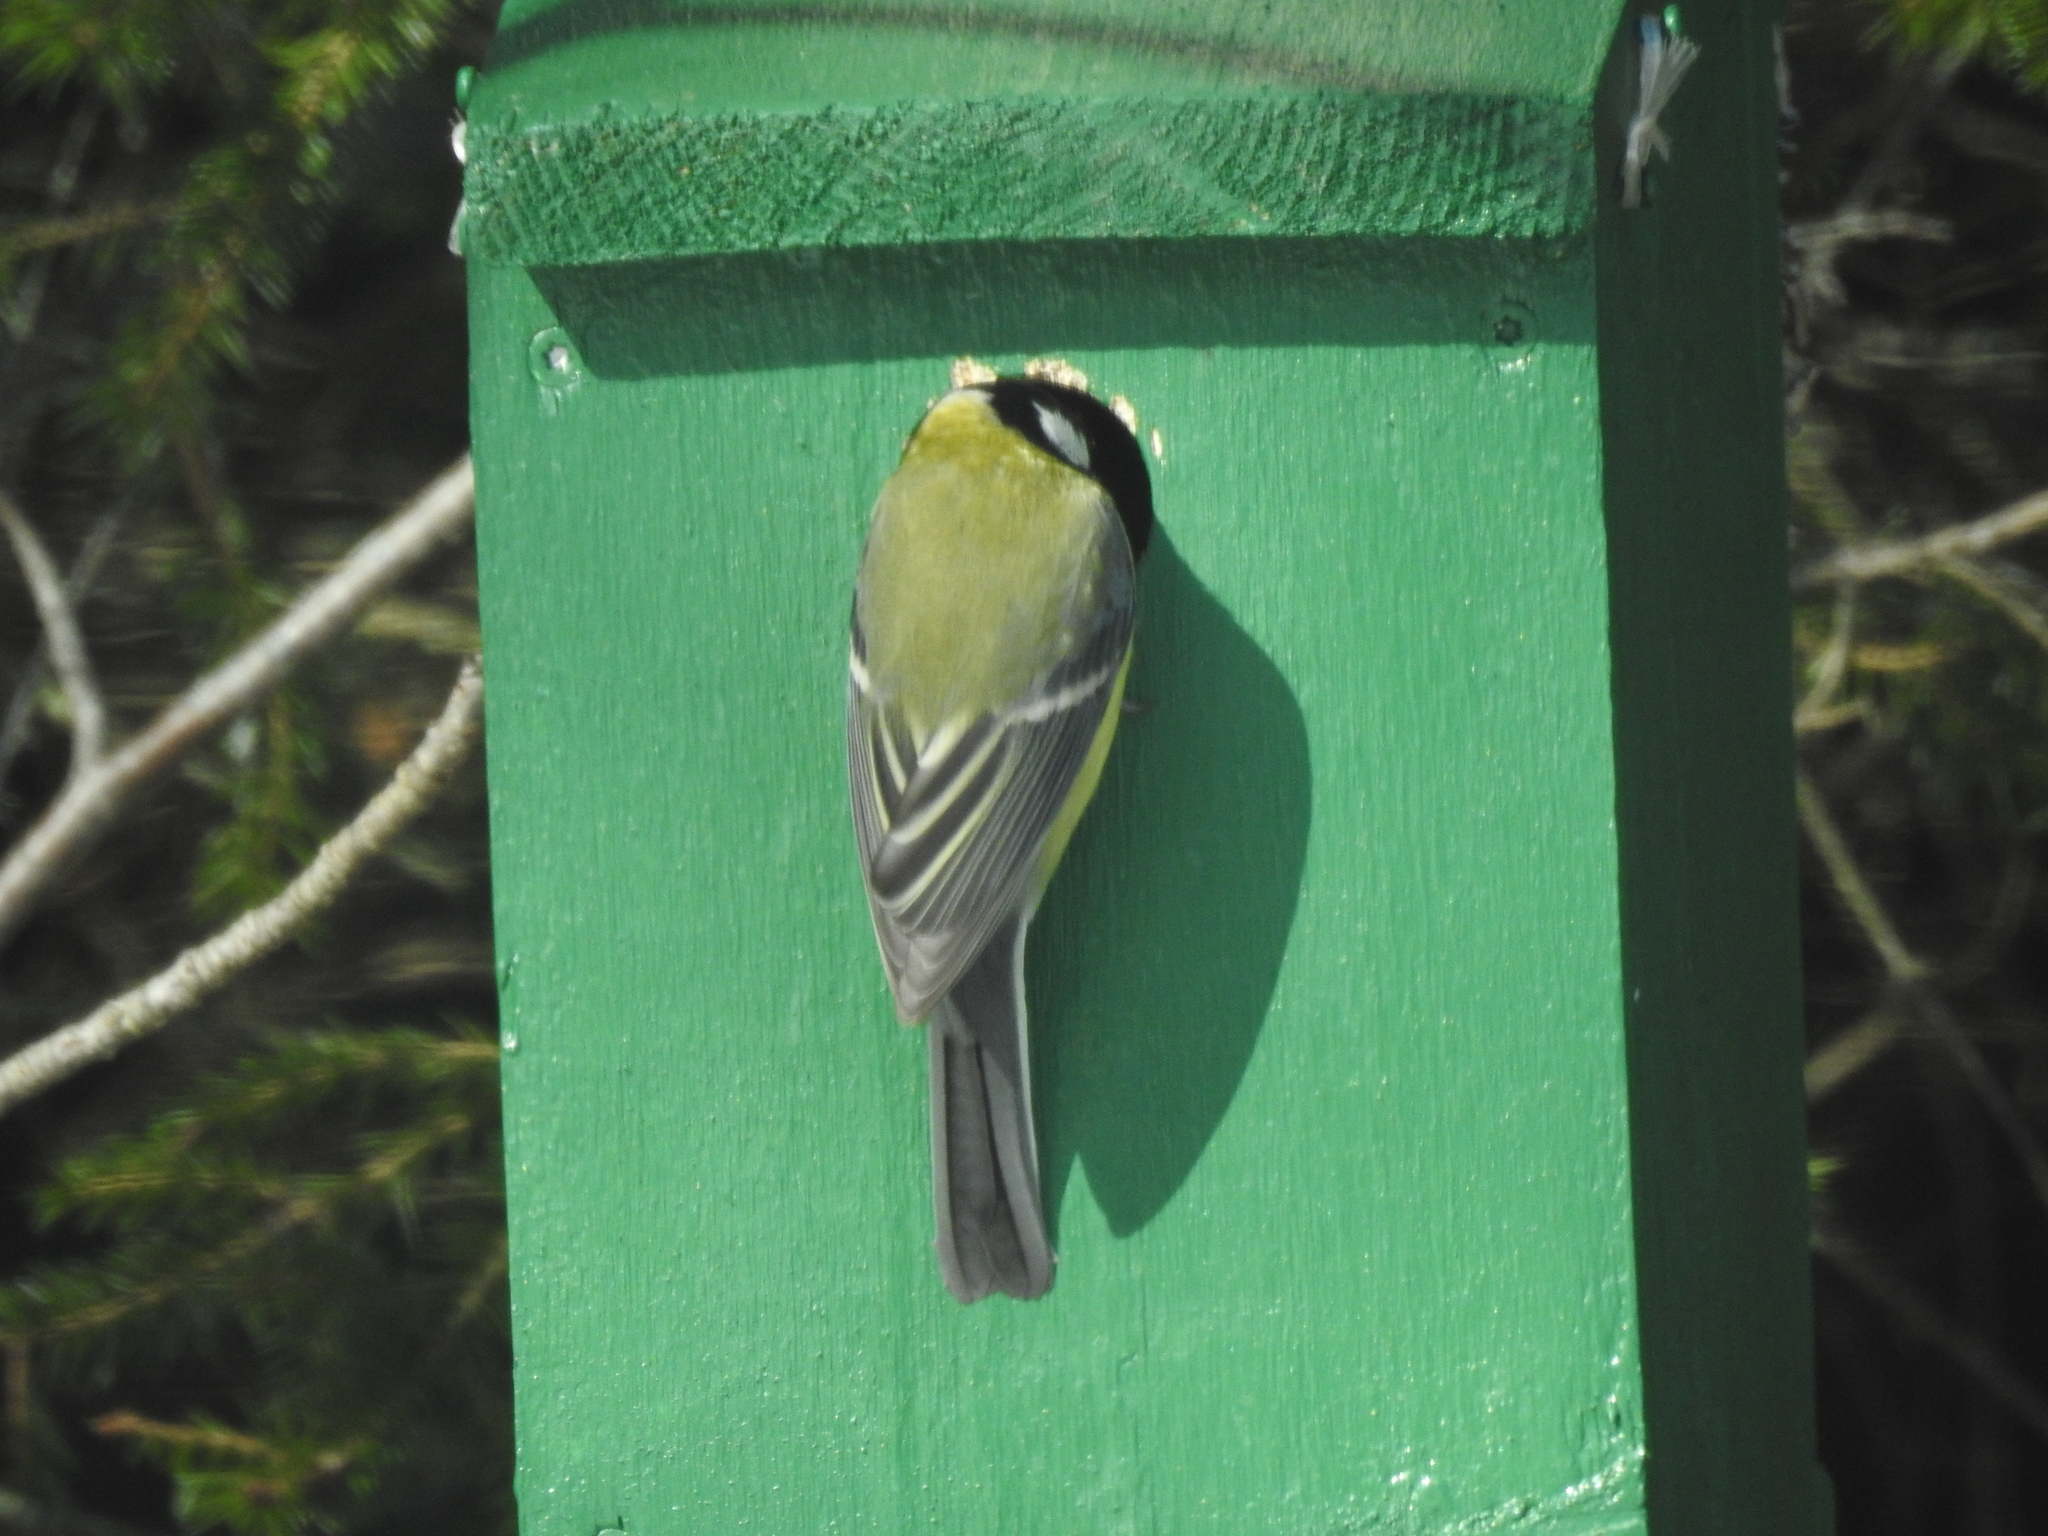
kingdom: Animalia
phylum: Chordata
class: Aves
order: Passeriformes
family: Paridae
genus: Parus
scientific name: Parus major
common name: Great tit
